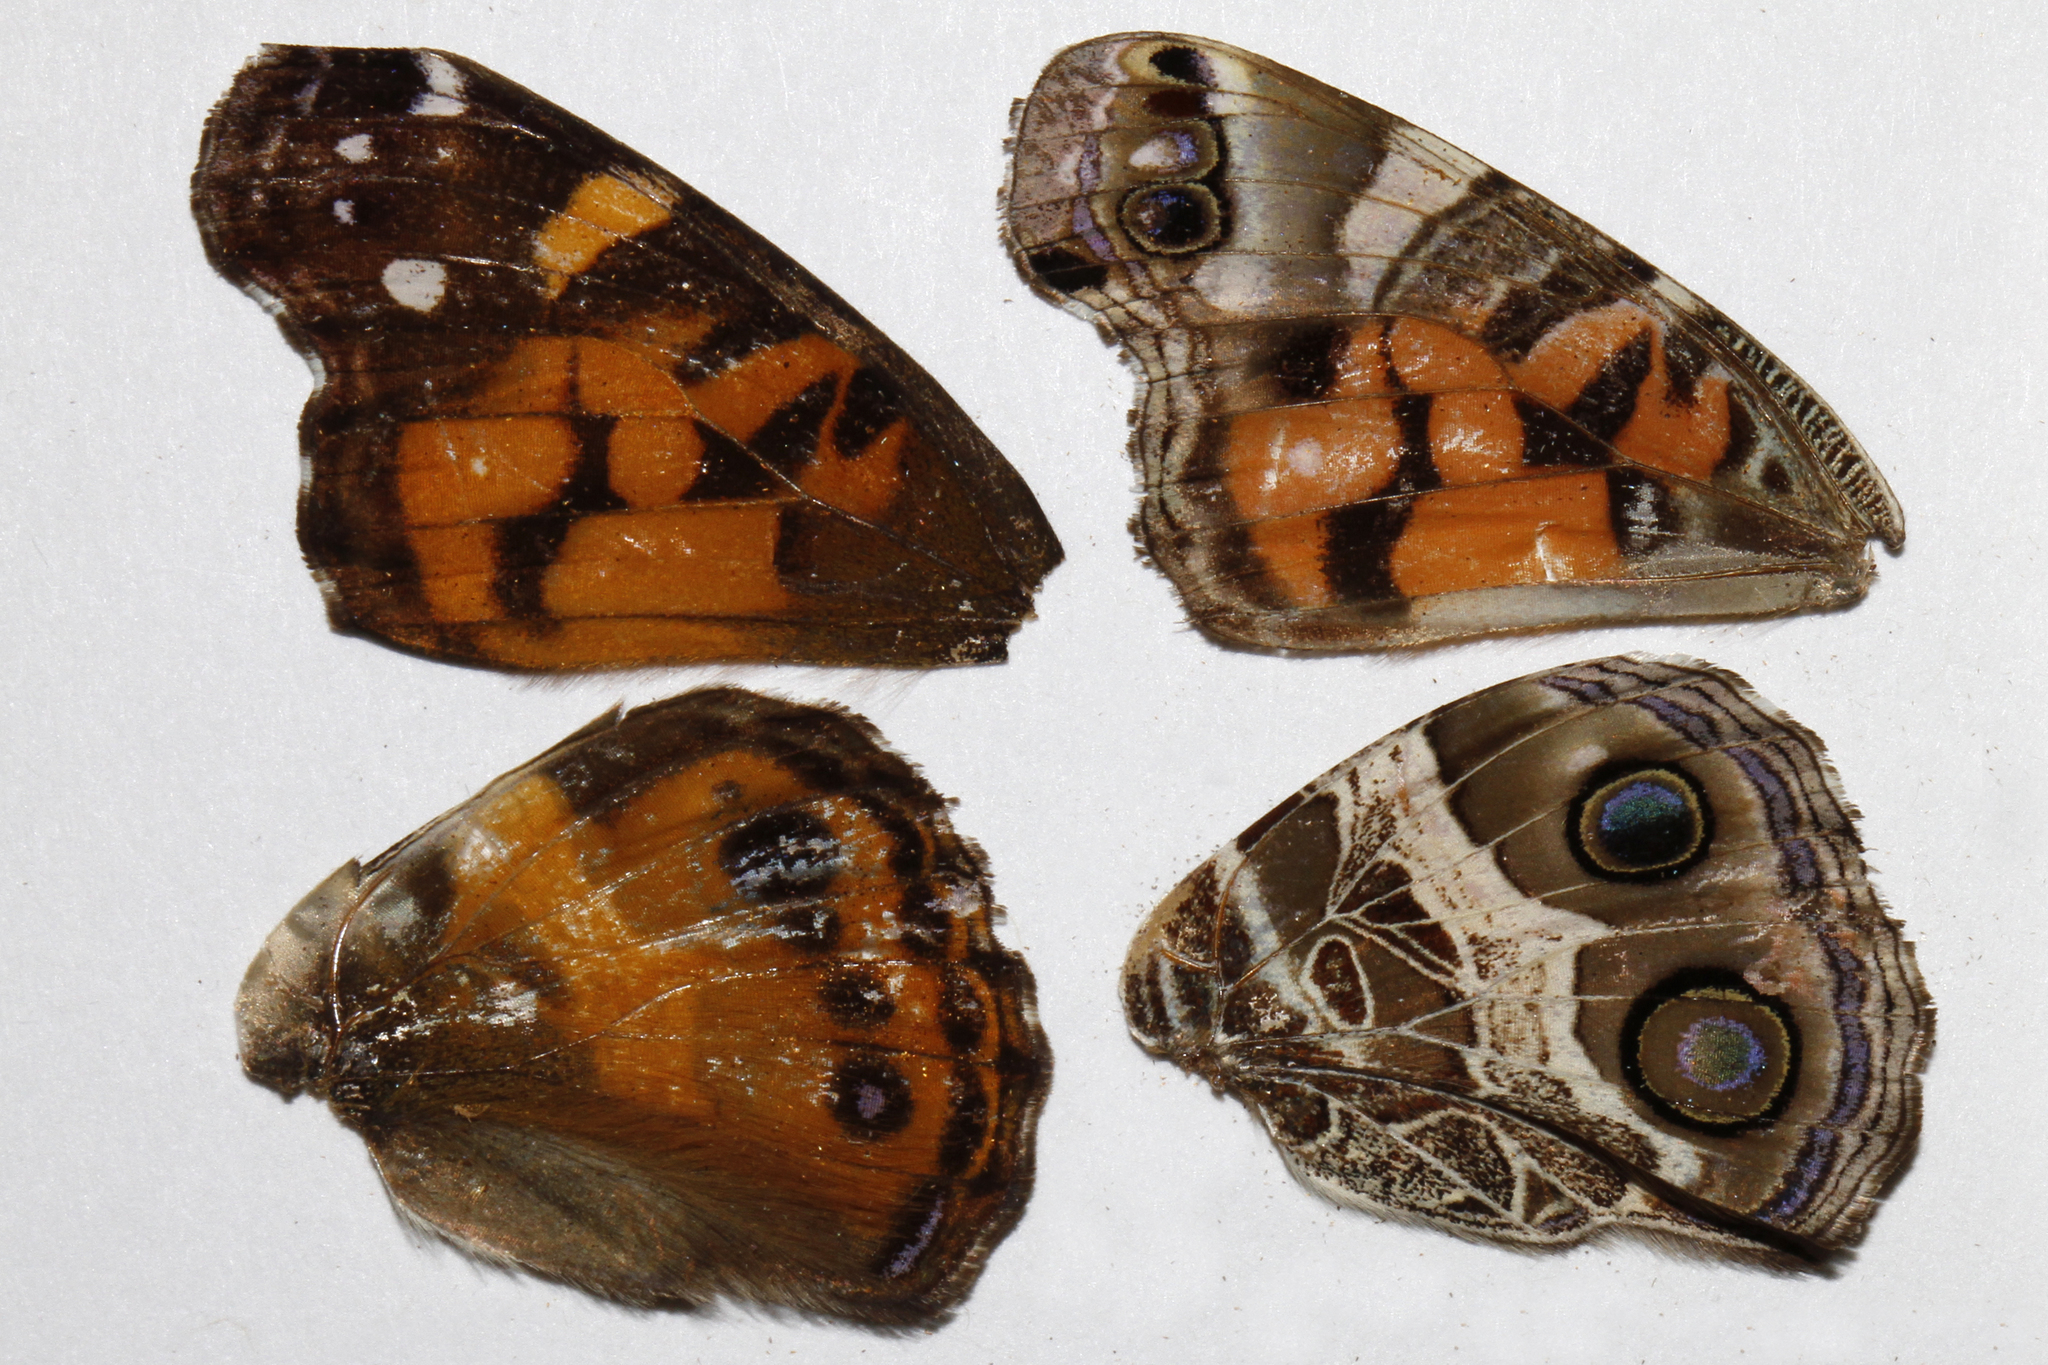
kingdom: Animalia
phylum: Arthropoda
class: Insecta
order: Lepidoptera
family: Nymphalidae
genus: Vanessa
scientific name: Vanessa virginiensis
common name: American lady
